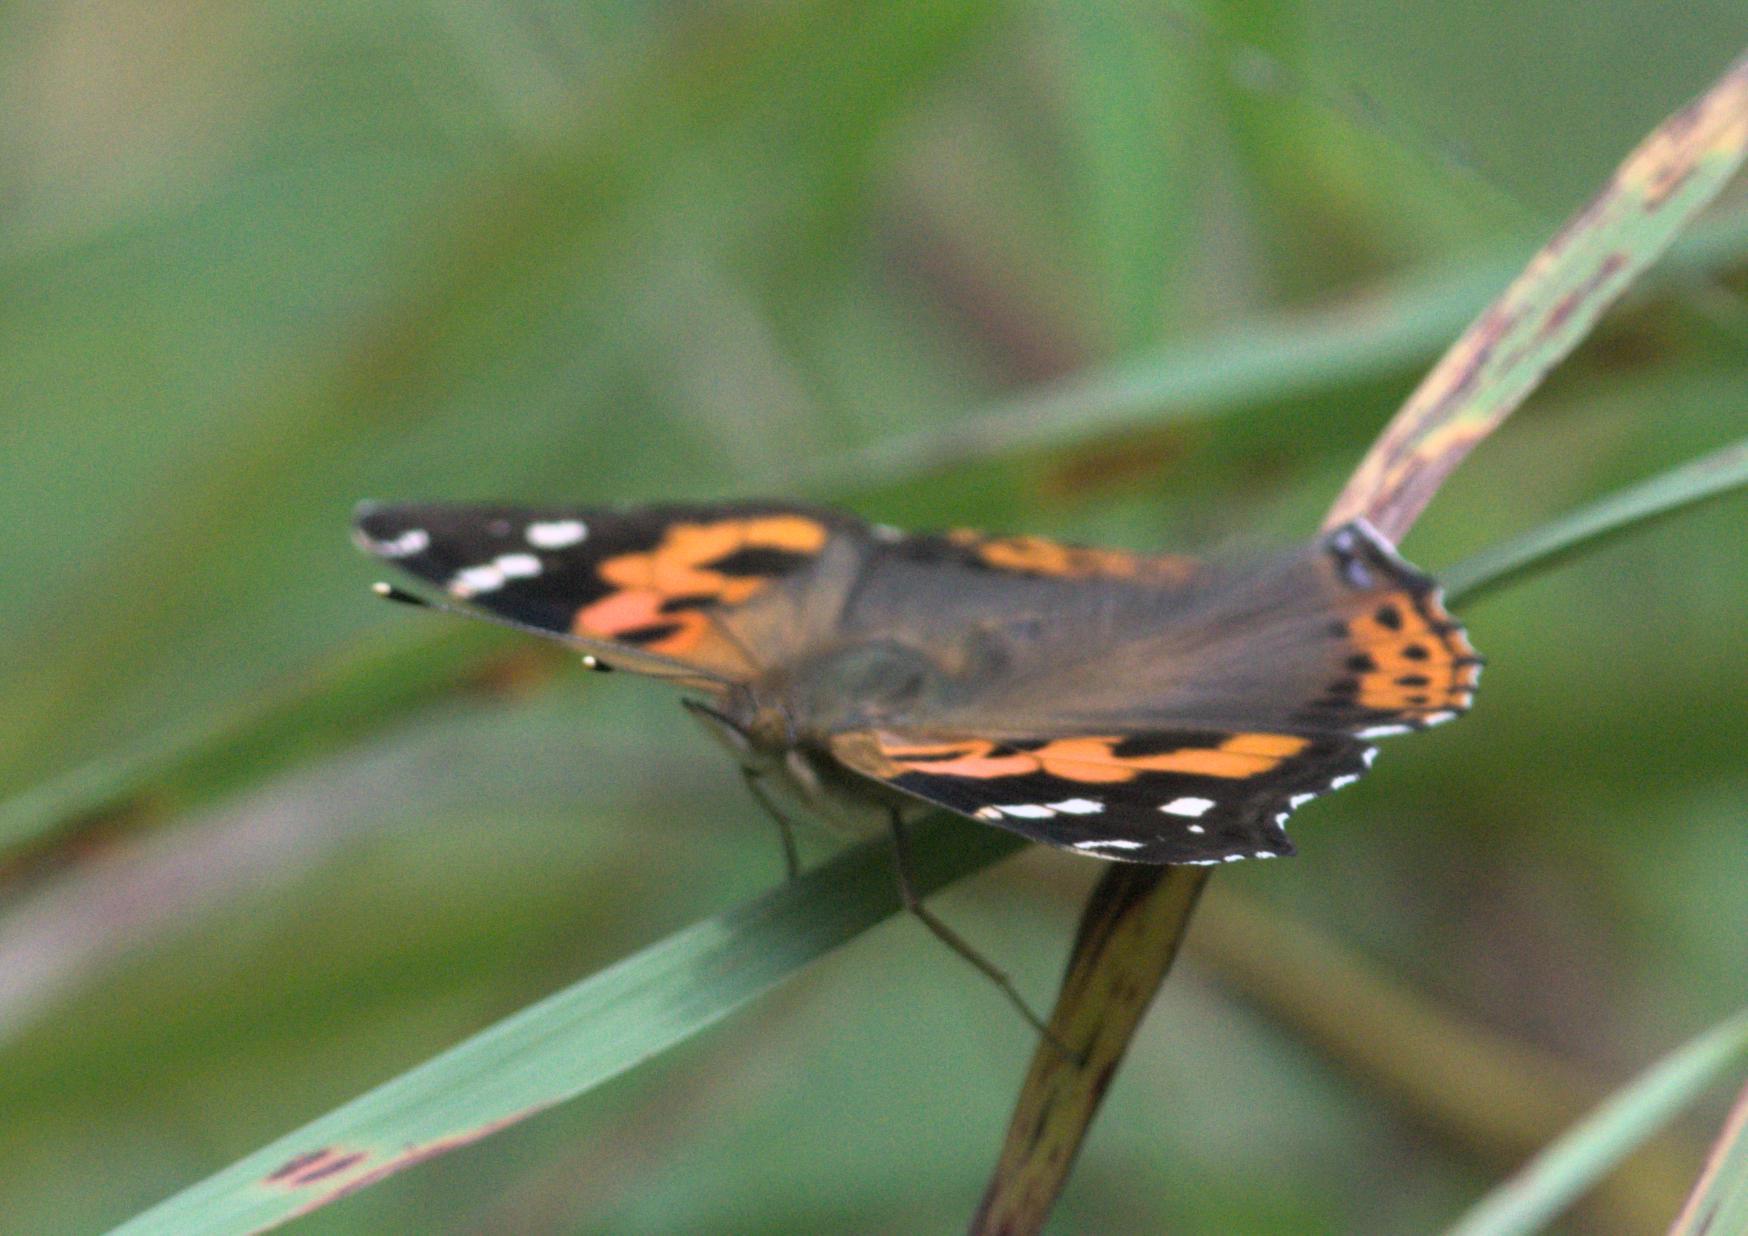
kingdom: Animalia
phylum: Arthropoda
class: Insecta
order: Lepidoptera
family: Nymphalidae
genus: Vanessa
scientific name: Vanessa indica
